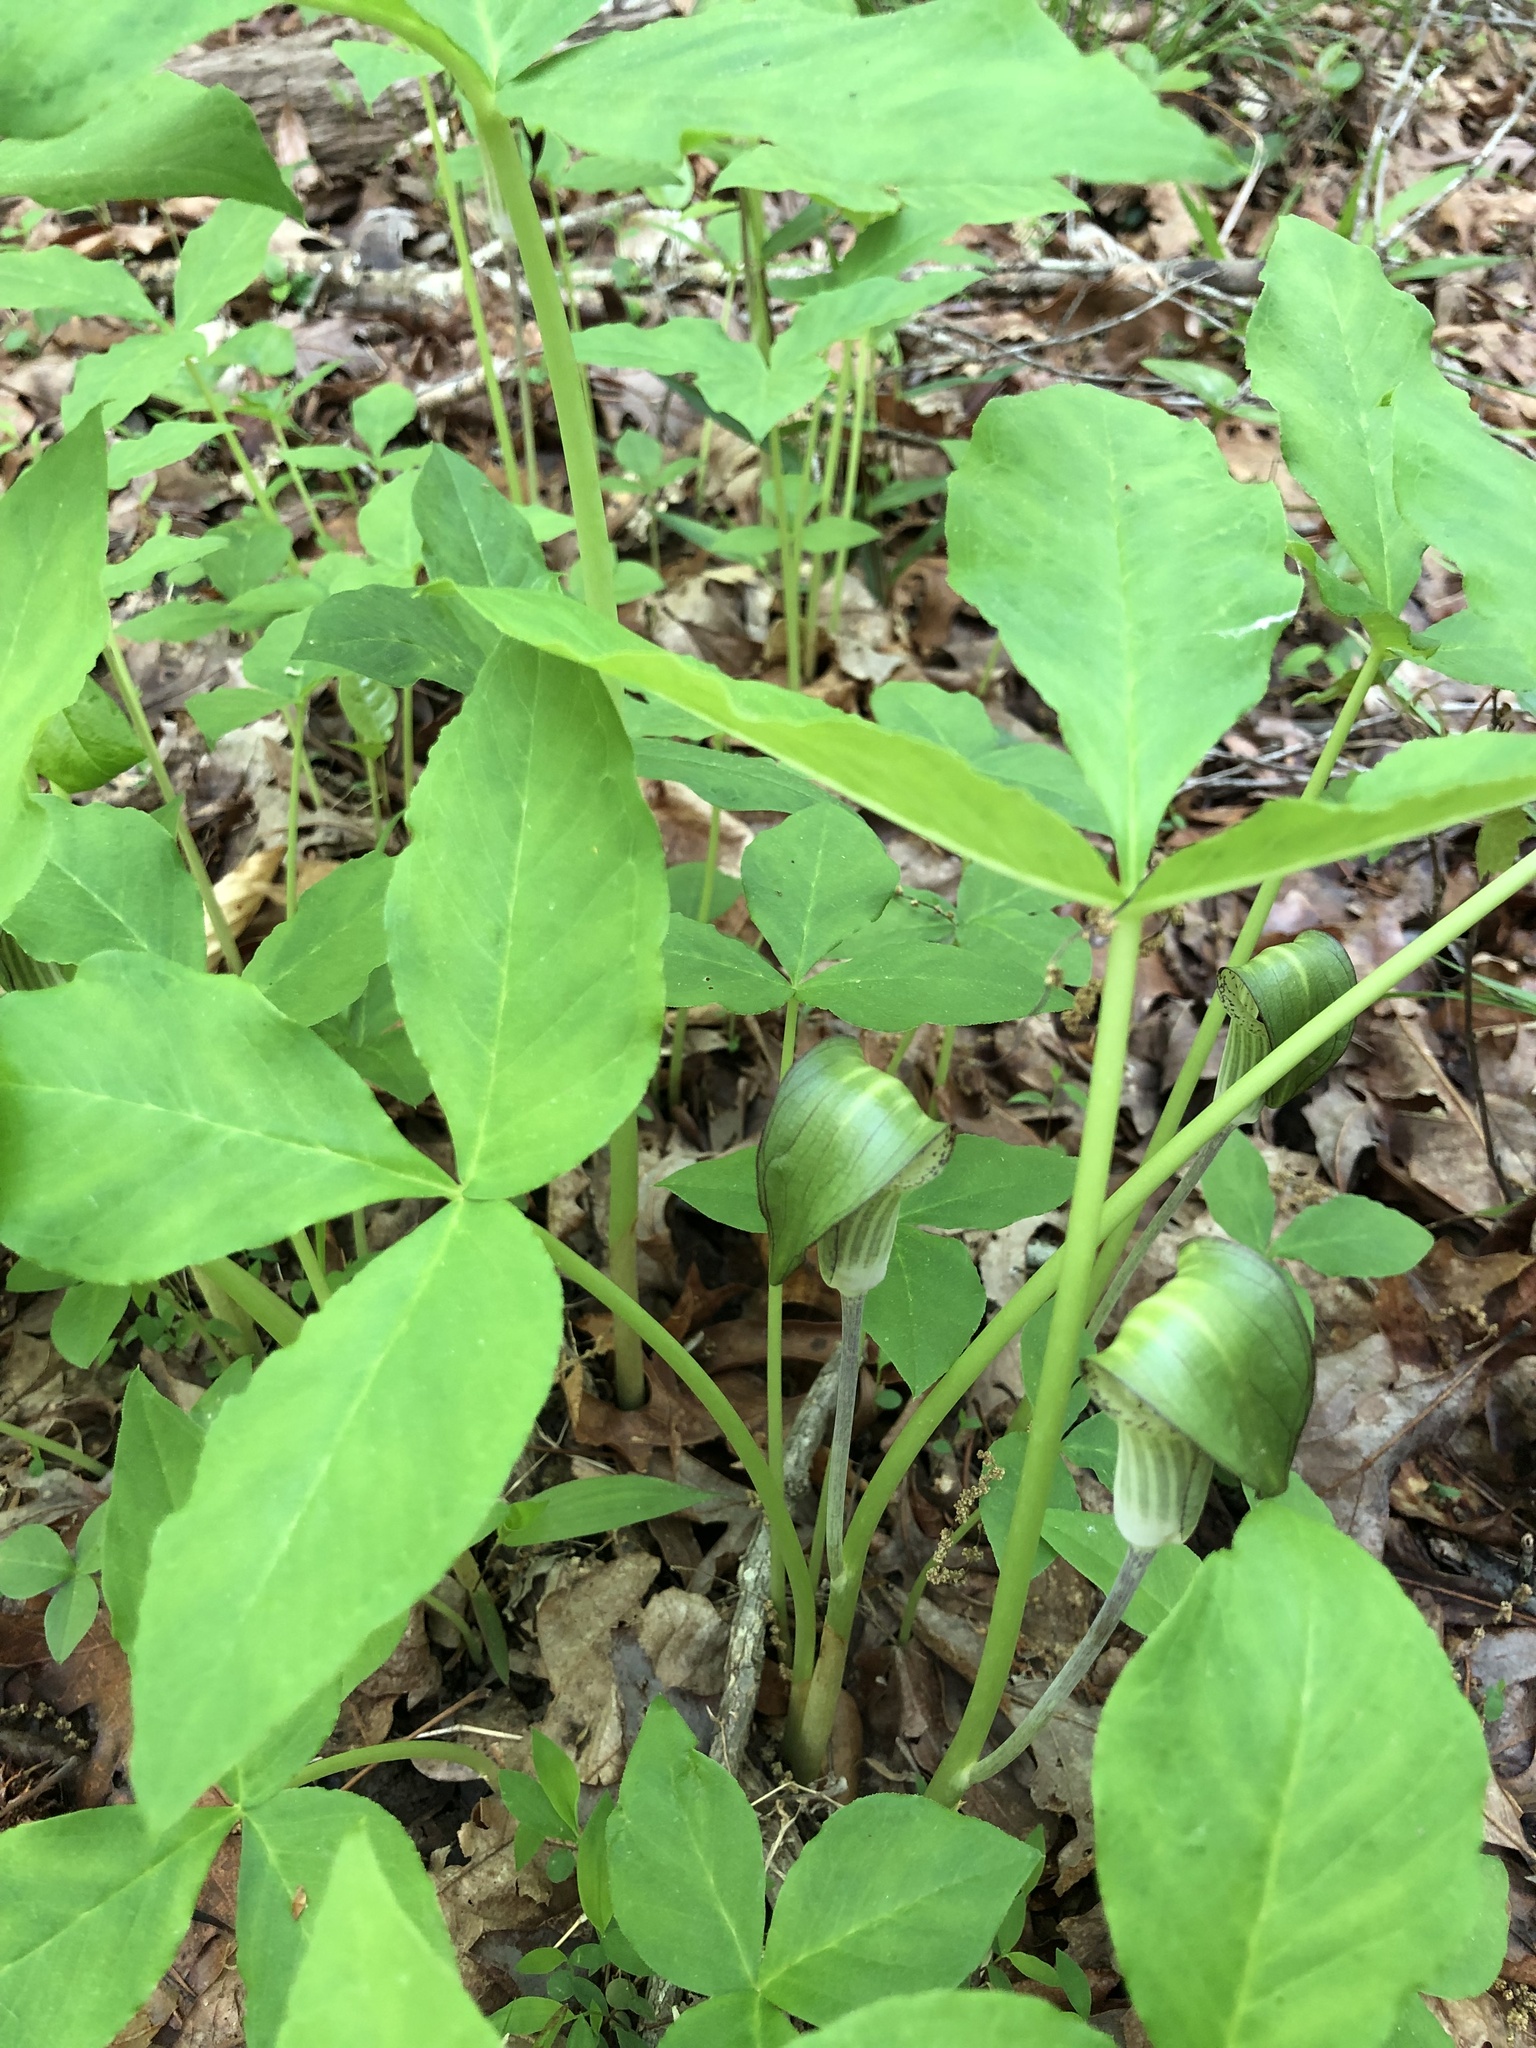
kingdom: Plantae
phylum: Tracheophyta
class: Liliopsida
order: Alismatales
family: Araceae
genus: Arisaema
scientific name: Arisaema triphyllum
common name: Jack-in-the-pulpit
